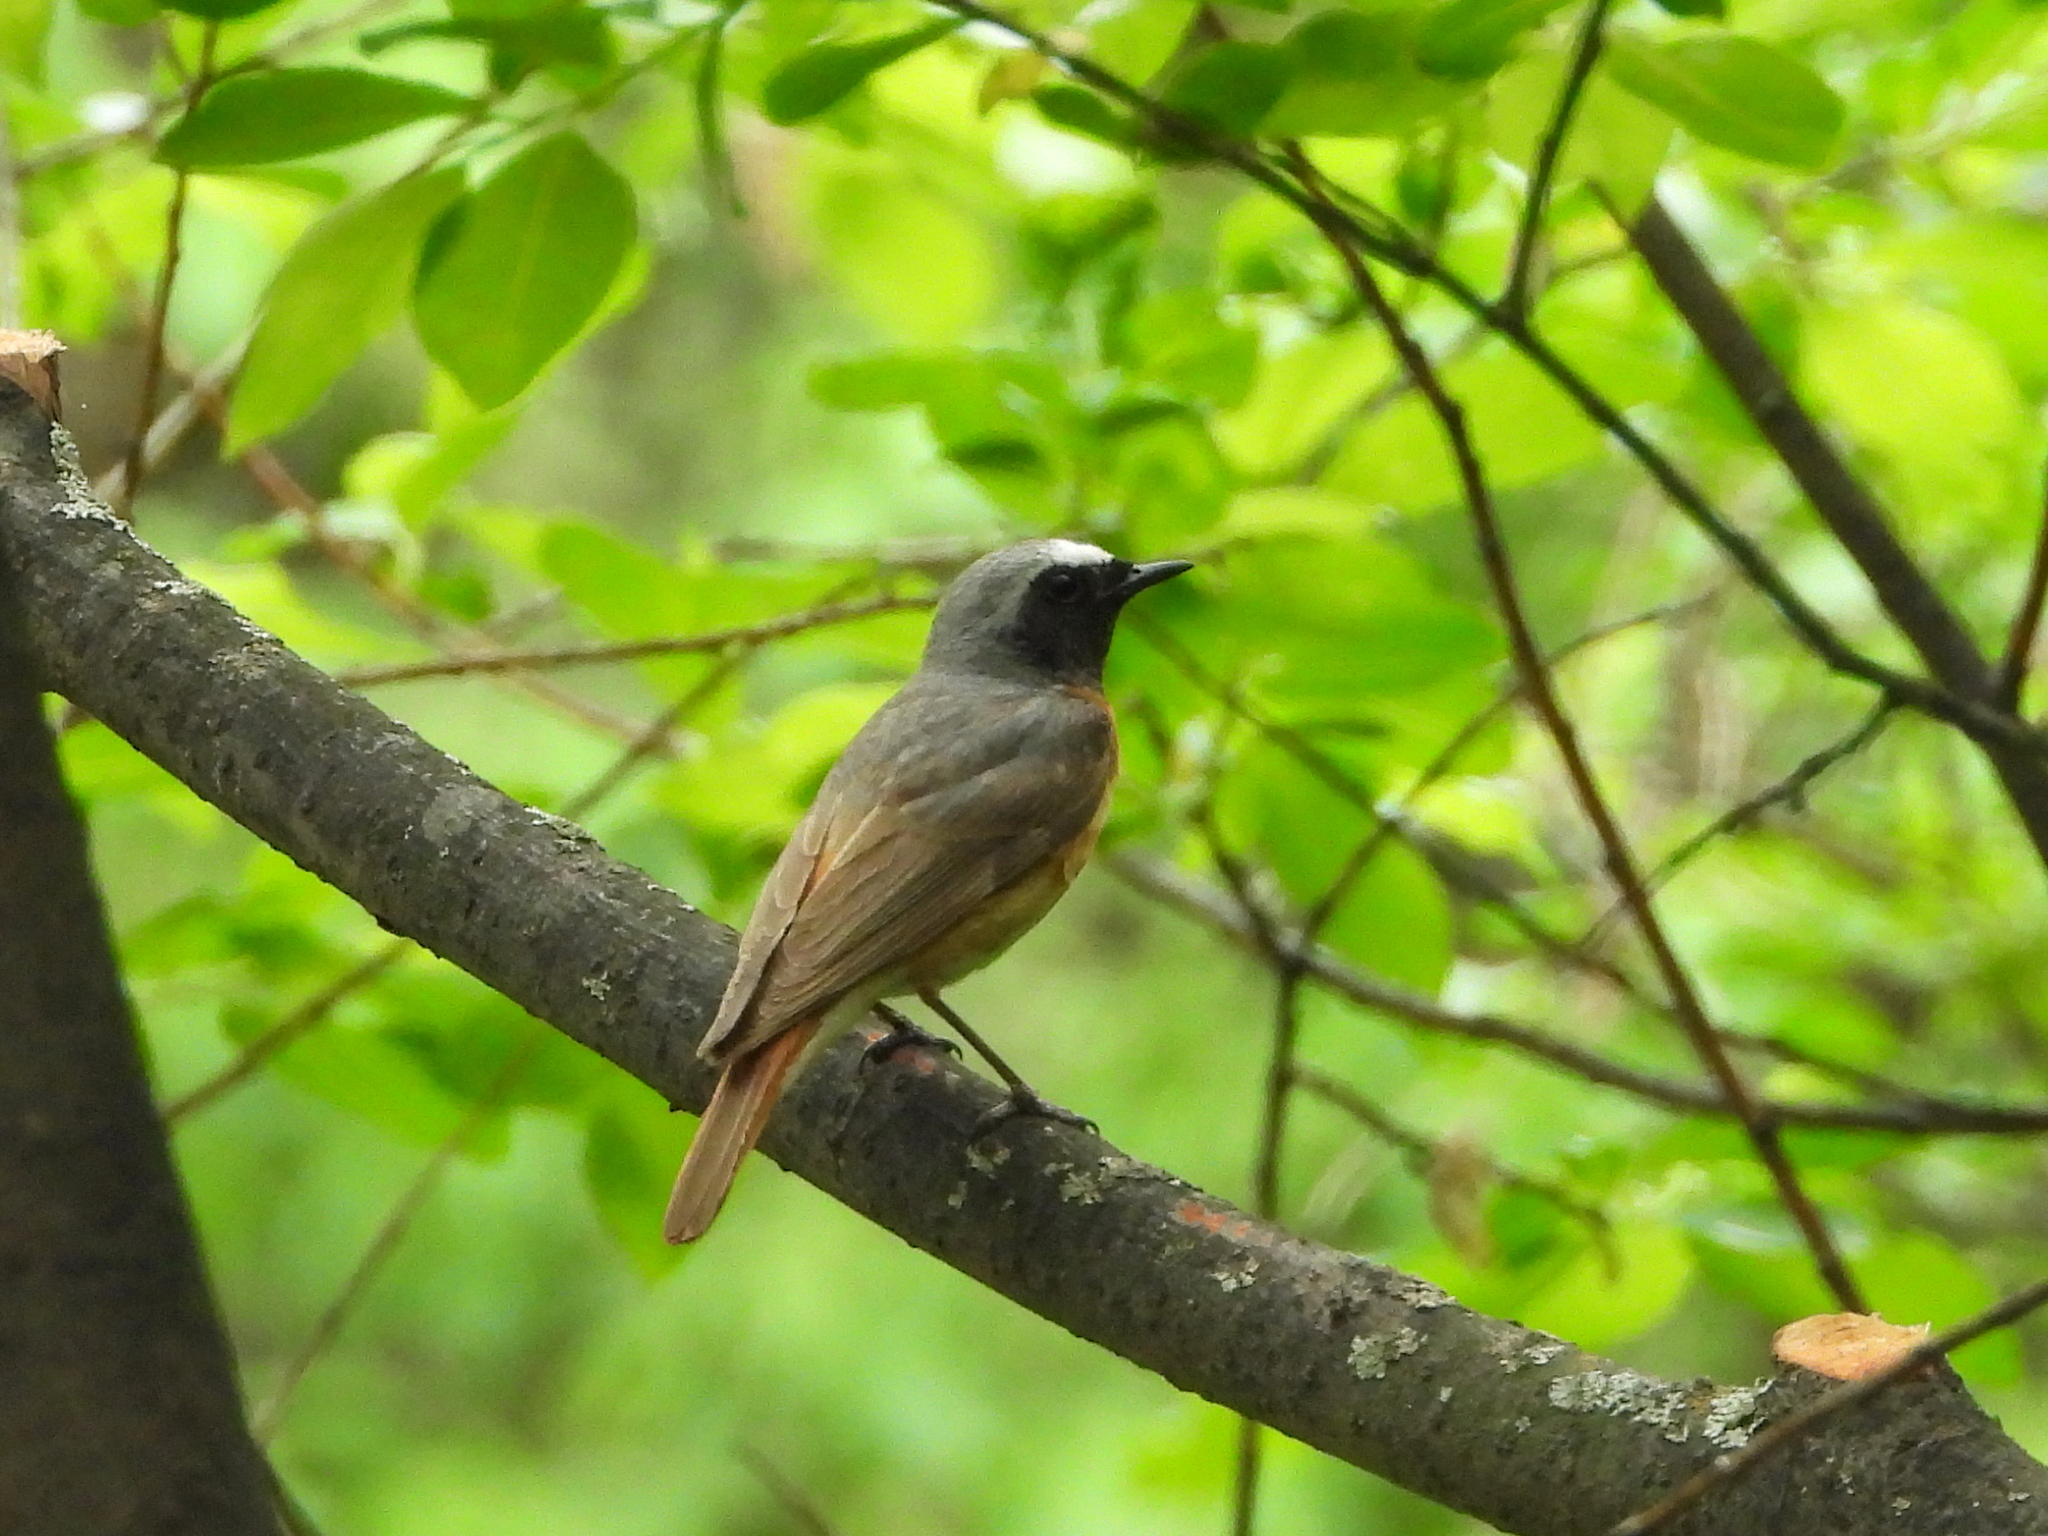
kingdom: Animalia
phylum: Chordata
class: Aves
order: Passeriformes
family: Muscicapidae
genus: Phoenicurus
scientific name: Phoenicurus phoenicurus
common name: Common redstart
